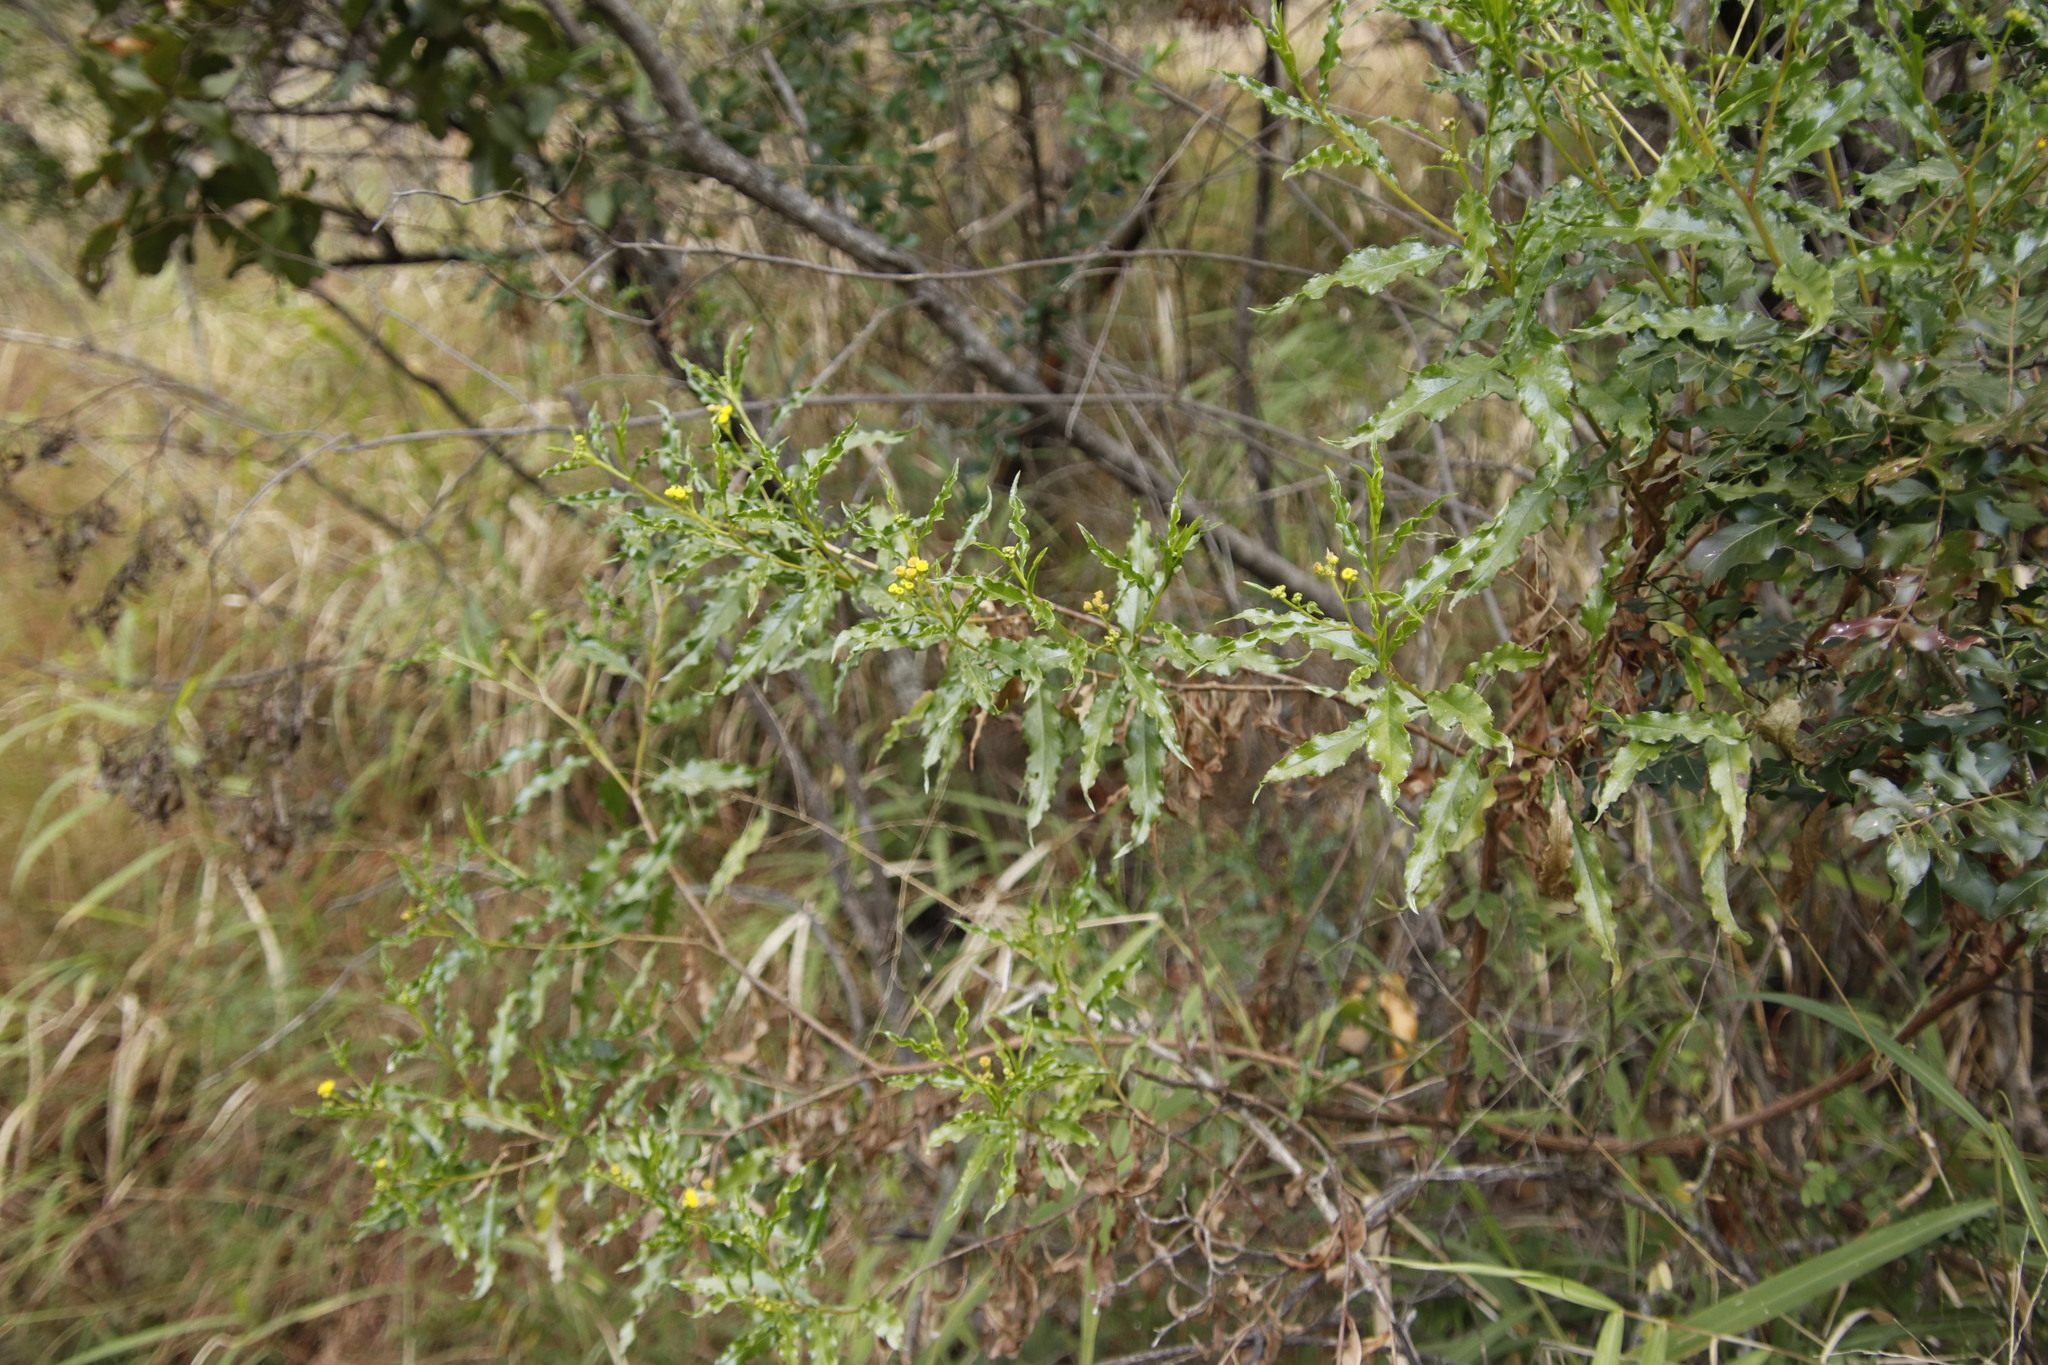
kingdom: Plantae
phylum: Tracheophyta
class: Magnoliopsida
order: Asterales
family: Asteraceae
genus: Psiadia
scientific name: Psiadia punctulata
